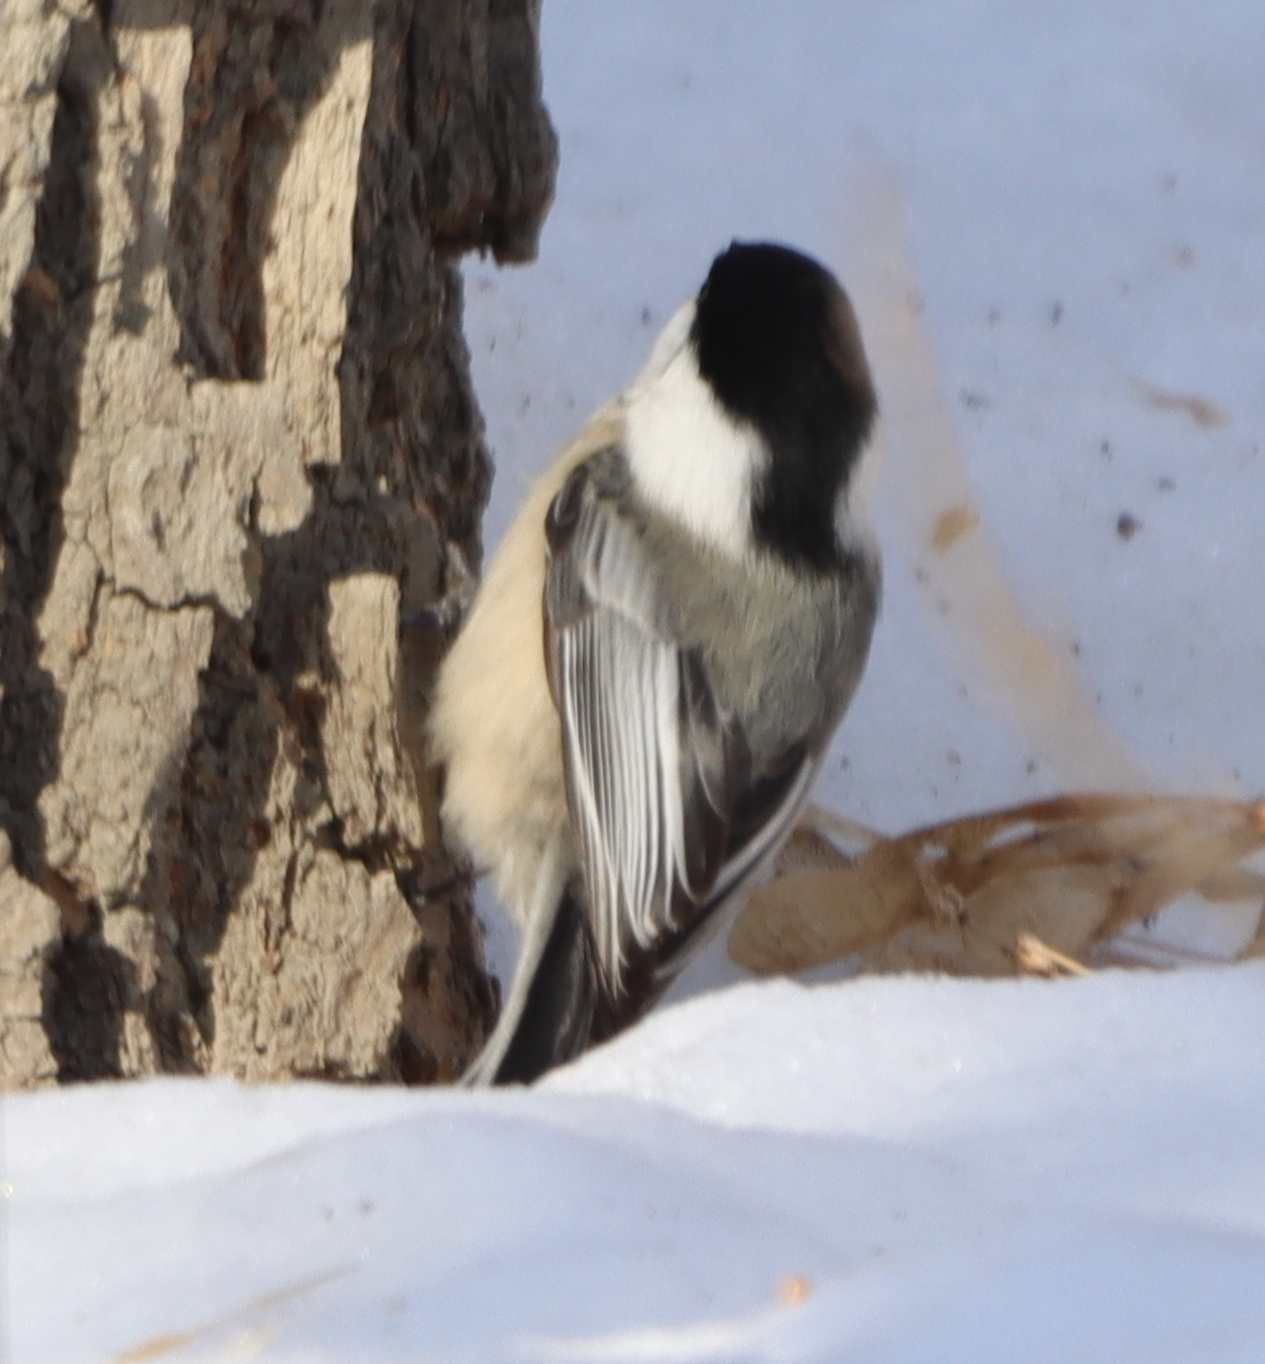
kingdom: Animalia
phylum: Chordata
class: Aves
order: Passeriformes
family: Paridae
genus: Poecile
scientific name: Poecile atricapillus
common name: Black-capped chickadee
